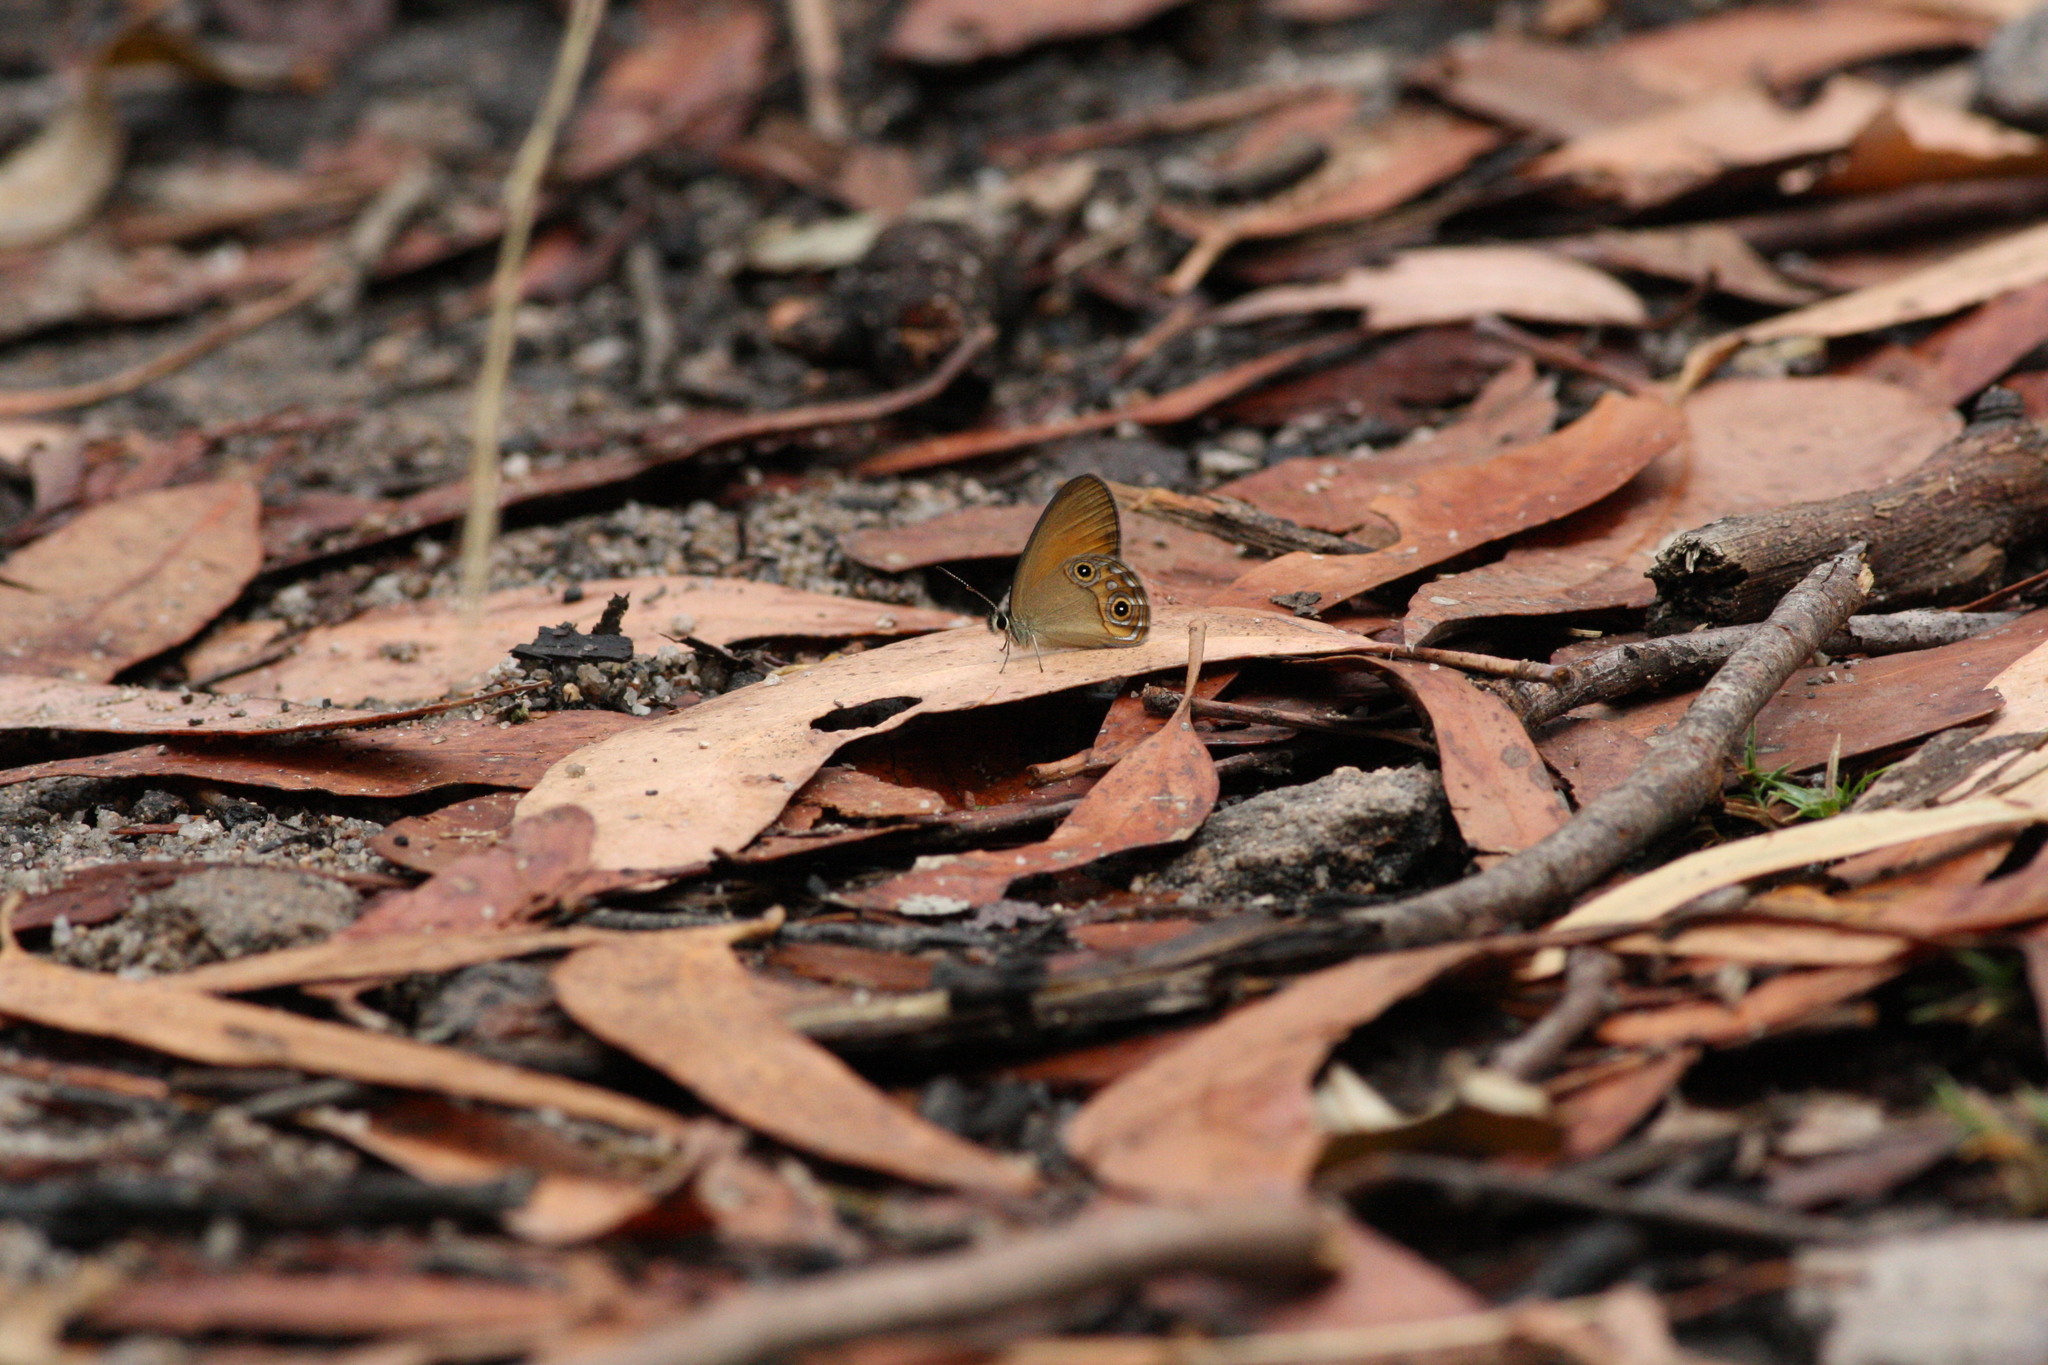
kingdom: Animalia
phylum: Arthropoda
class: Insecta
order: Lepidoptera
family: Nymphalidae
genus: Hypocysta
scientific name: Hypocysta adiante
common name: Orange ringlet
